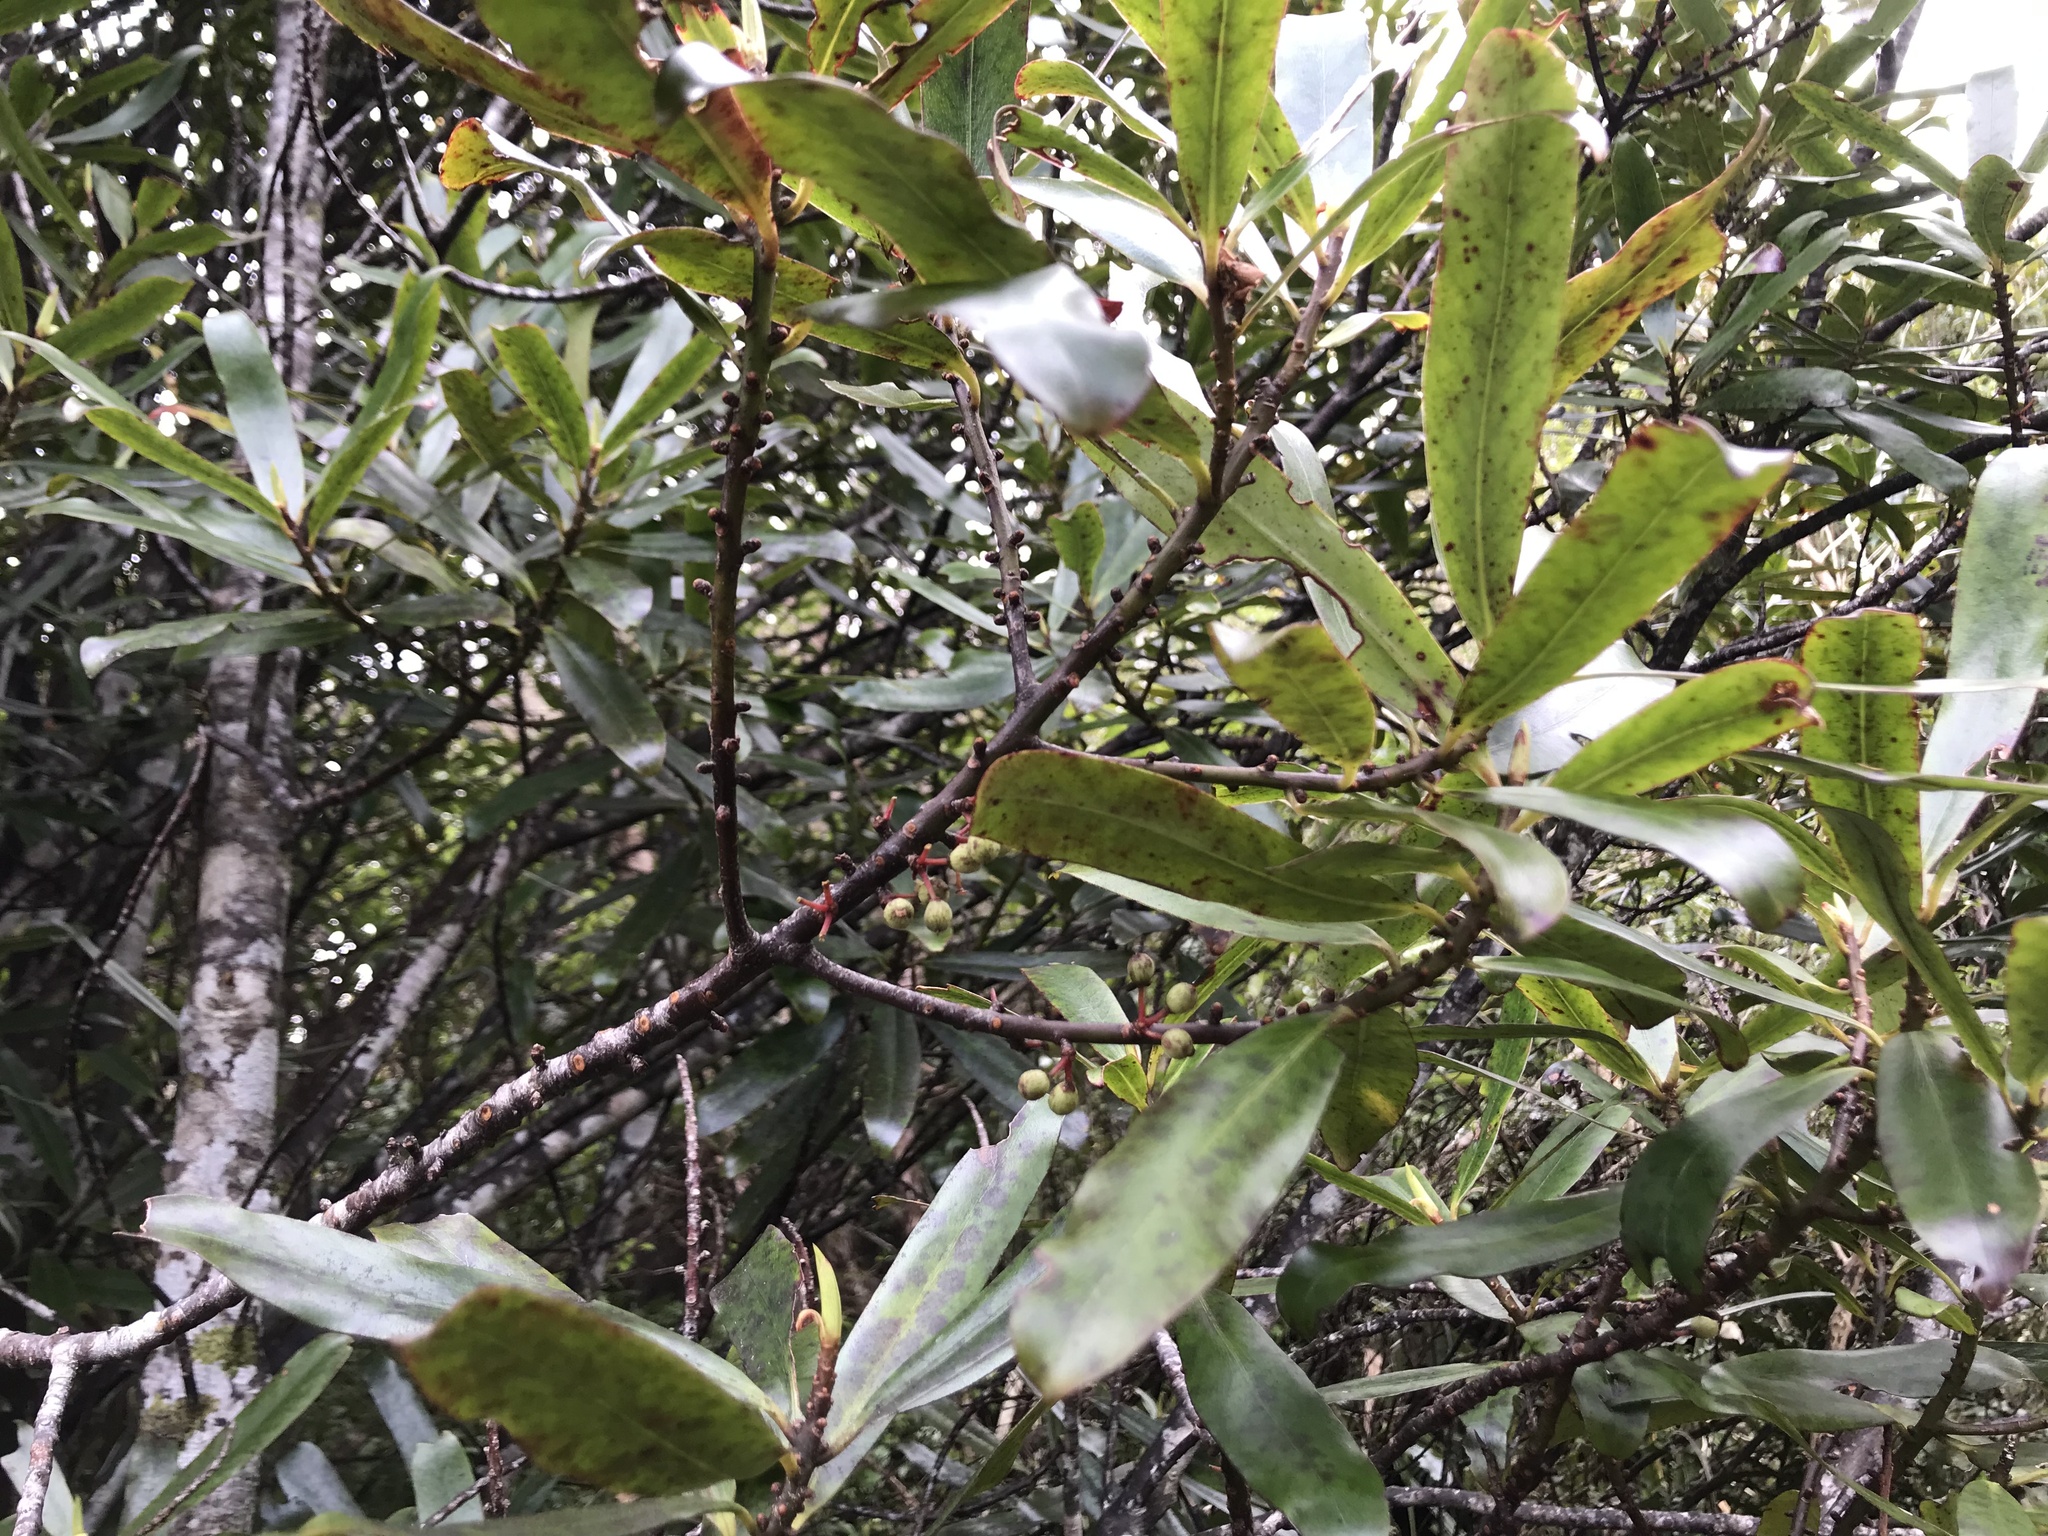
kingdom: Plantae
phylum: Tracheophyta
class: Magnoliopsida
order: Ericales
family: Primulaceae
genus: Myrsine
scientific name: Myrsine salicina
